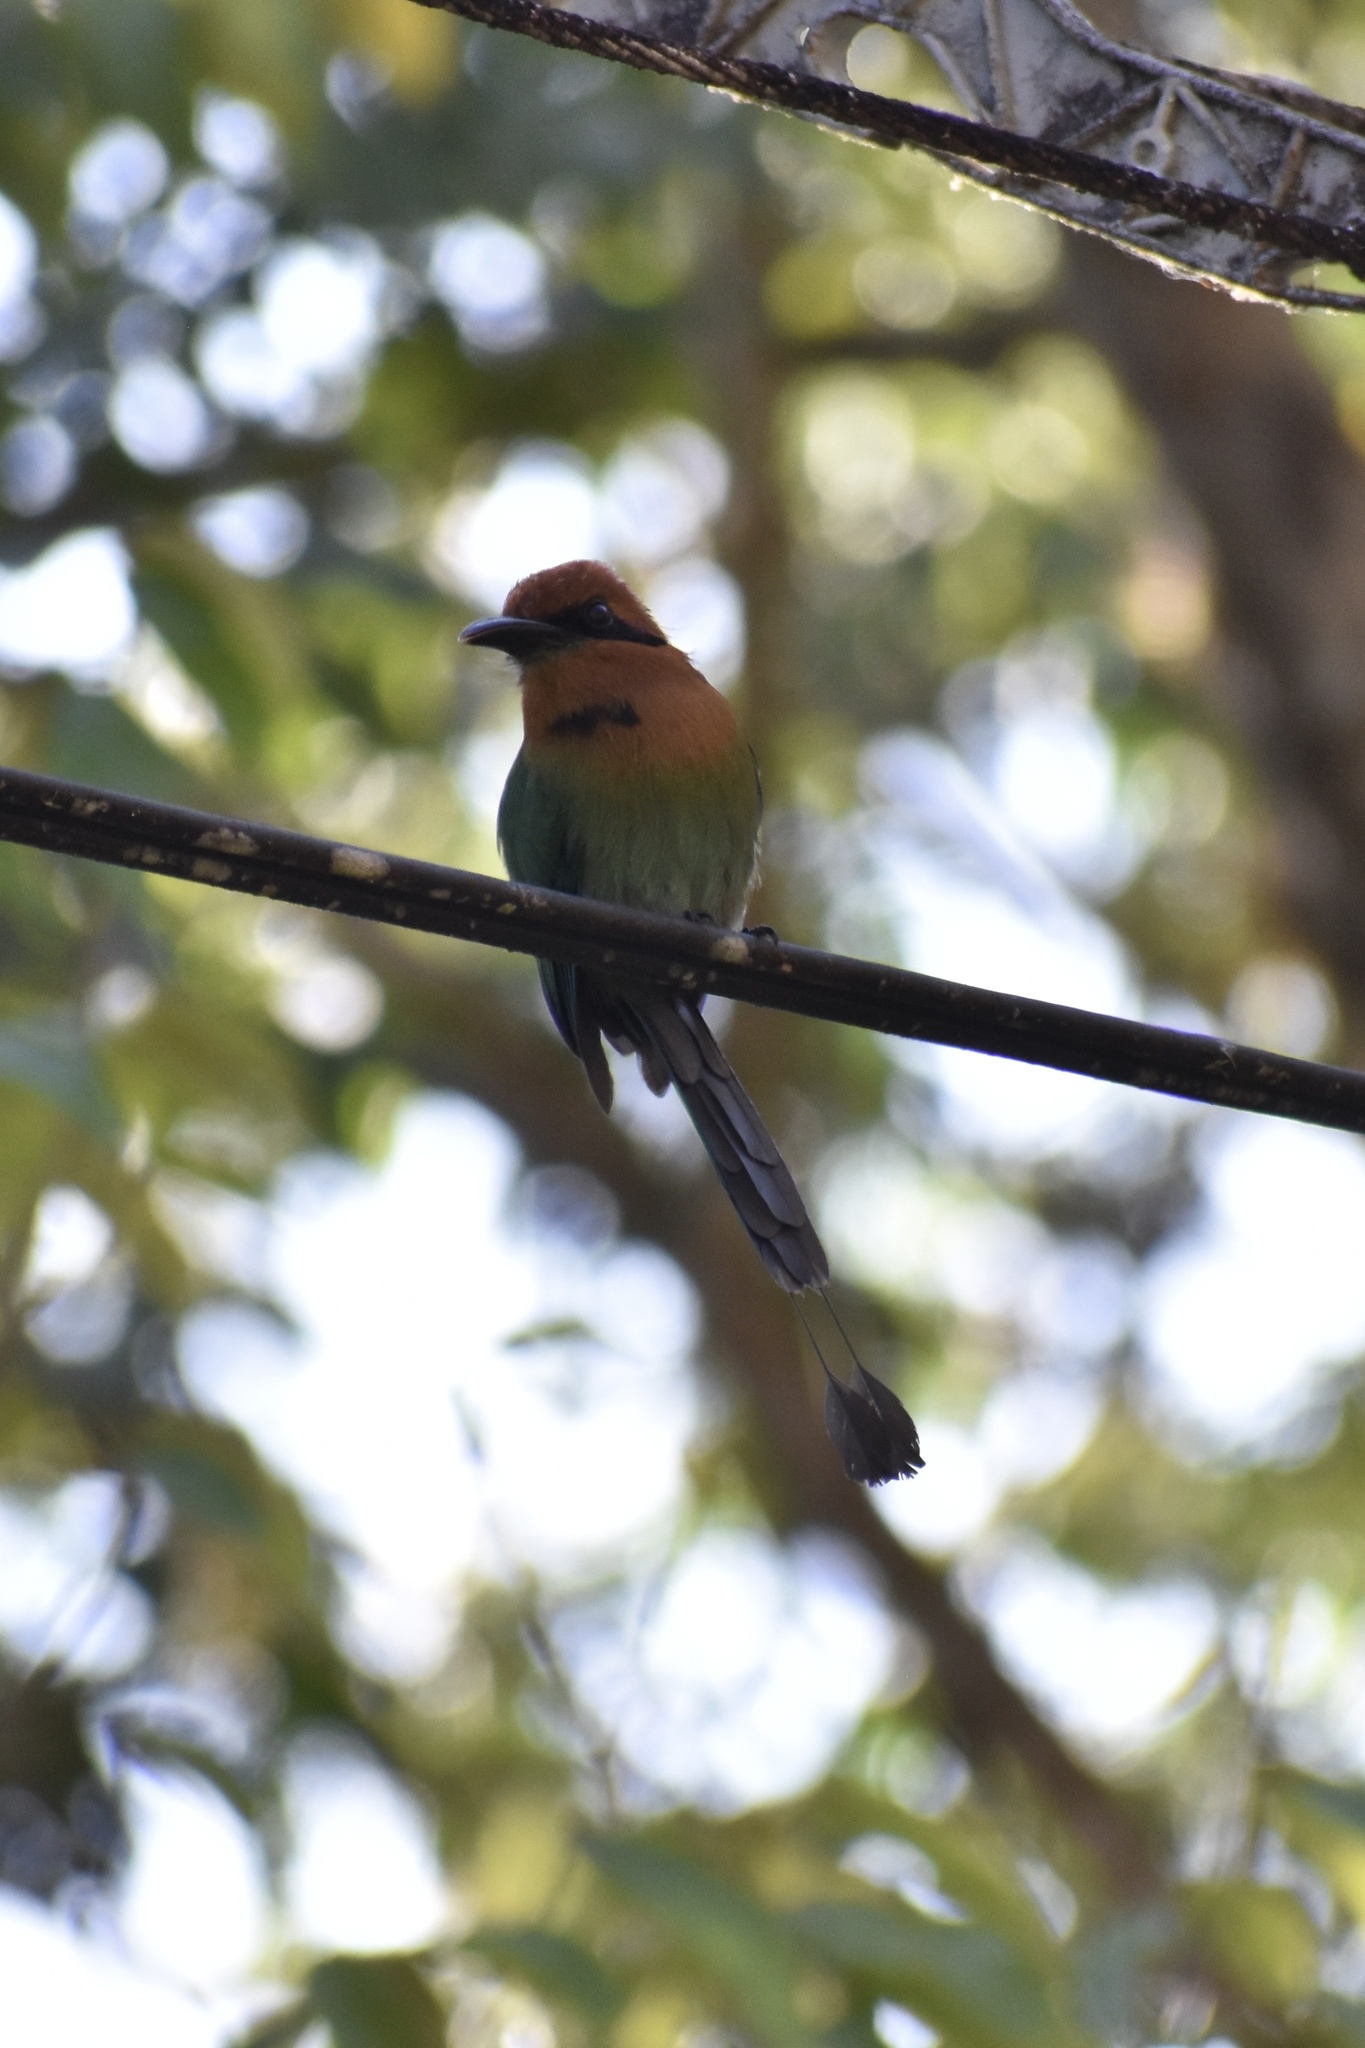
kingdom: Animalia
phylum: Chordata
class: Aves
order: Coraciiformes
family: Momotidae
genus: Electron
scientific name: Electron platyrhynchum
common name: Broad-billed motmot
